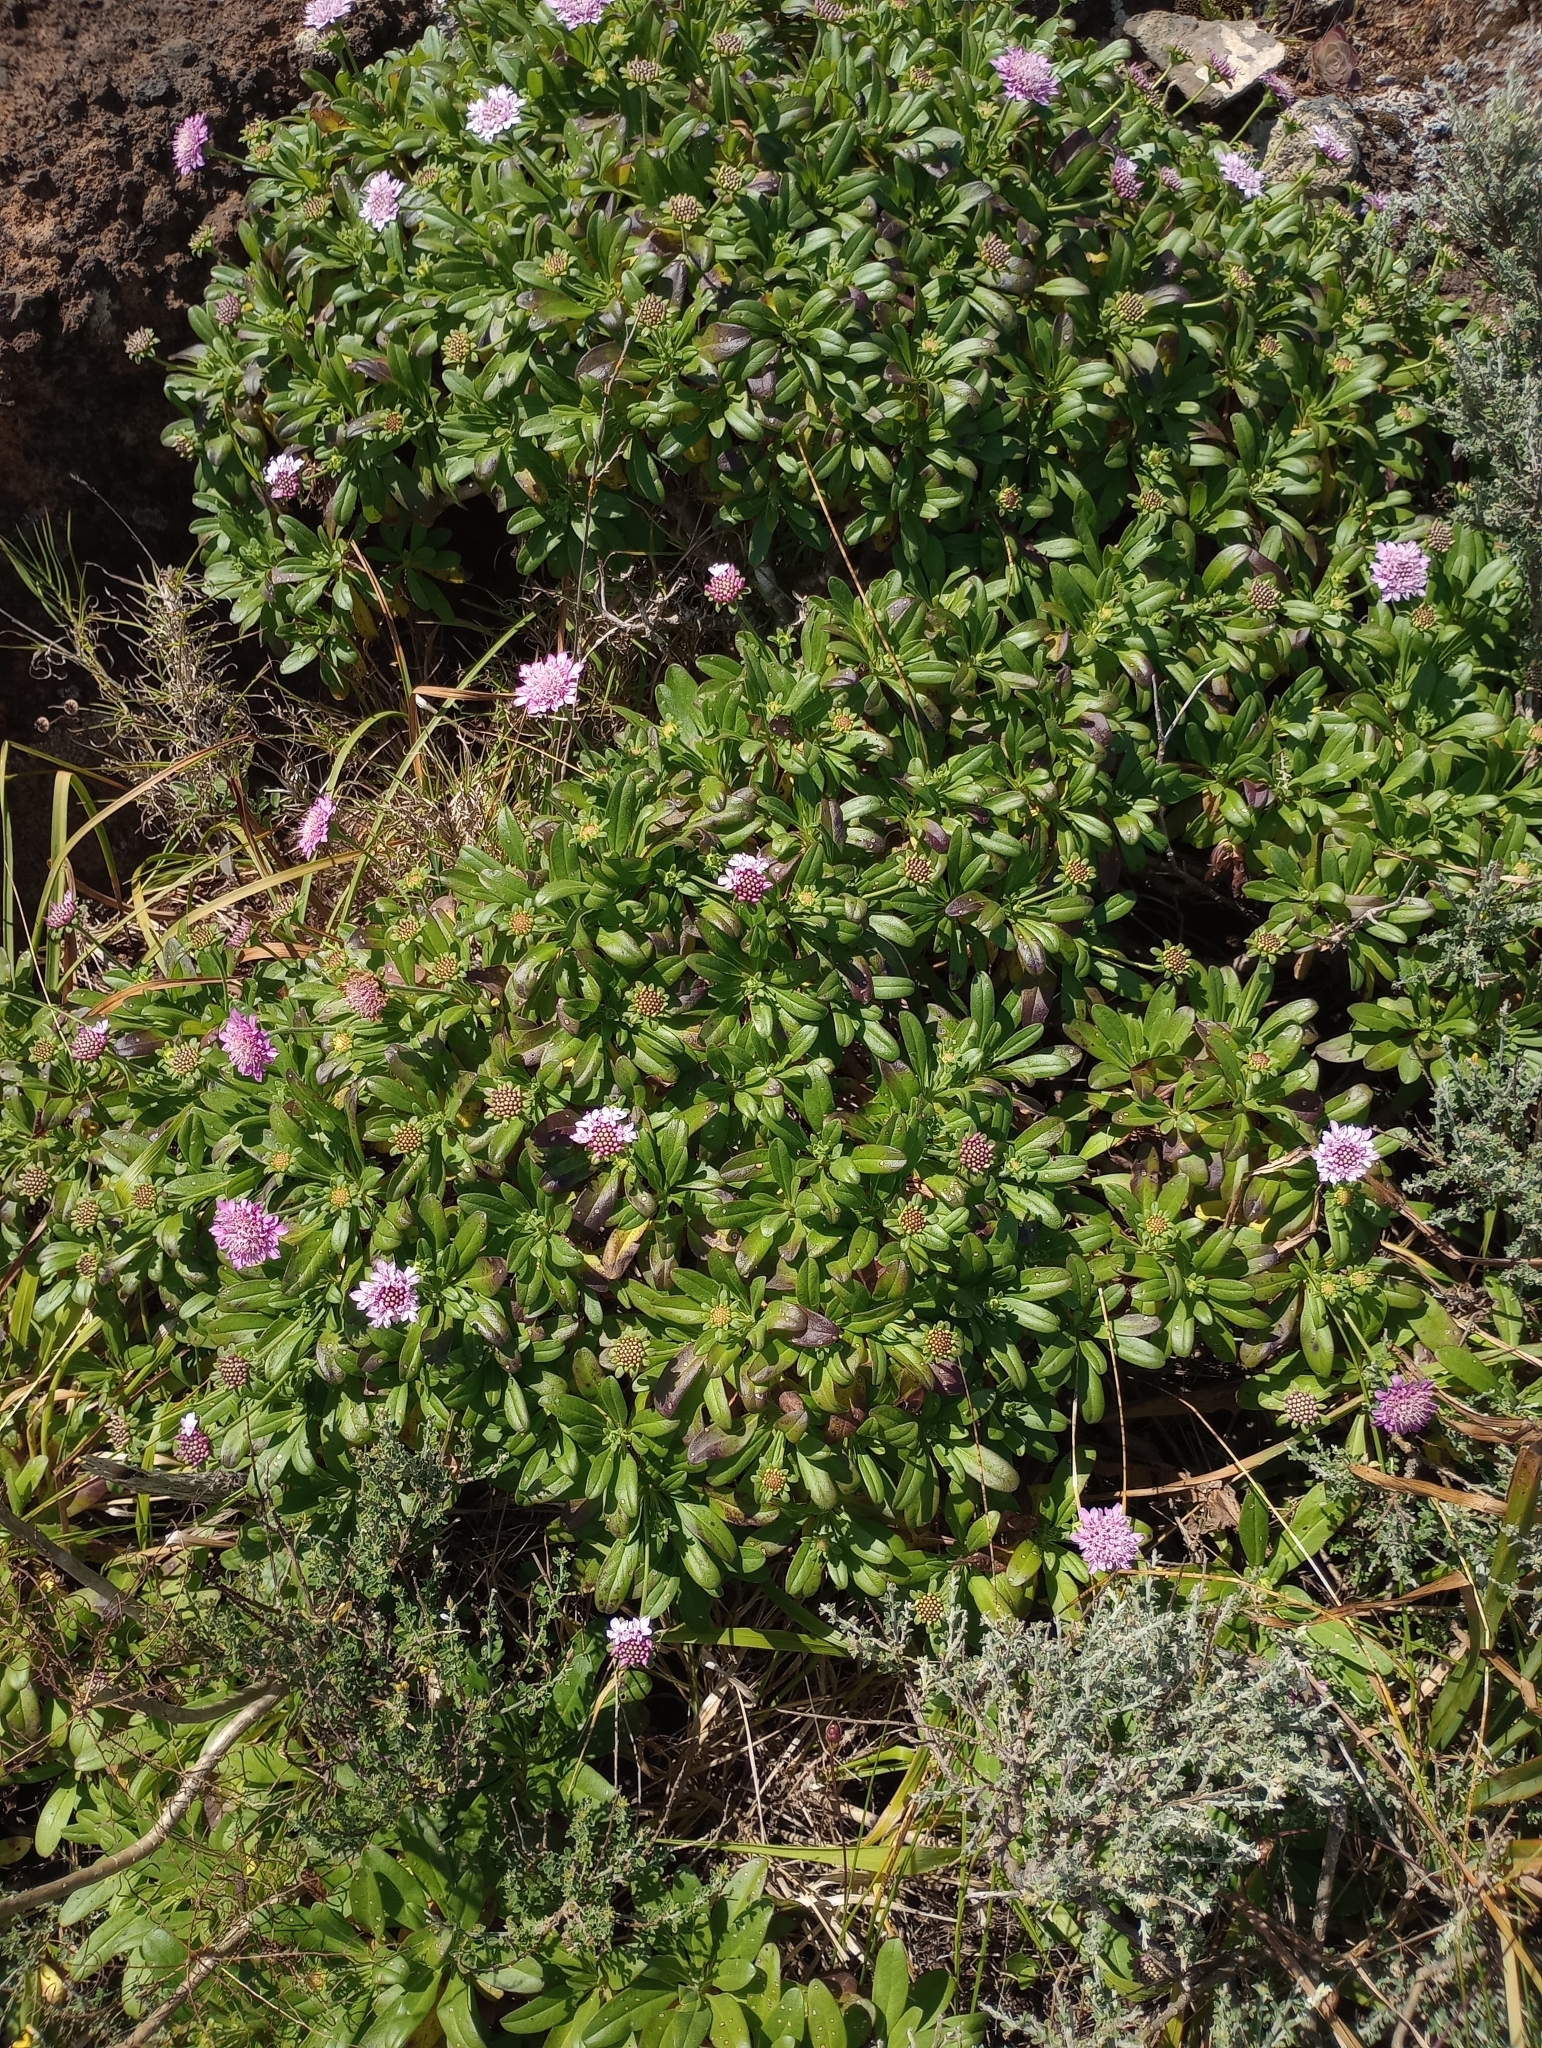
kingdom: Plantae
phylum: Tracheophyta
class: Magnoliopsida
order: Dipsacales
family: Caprifoliaceae
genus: Pterocephalus
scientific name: Pterocephalus virens
